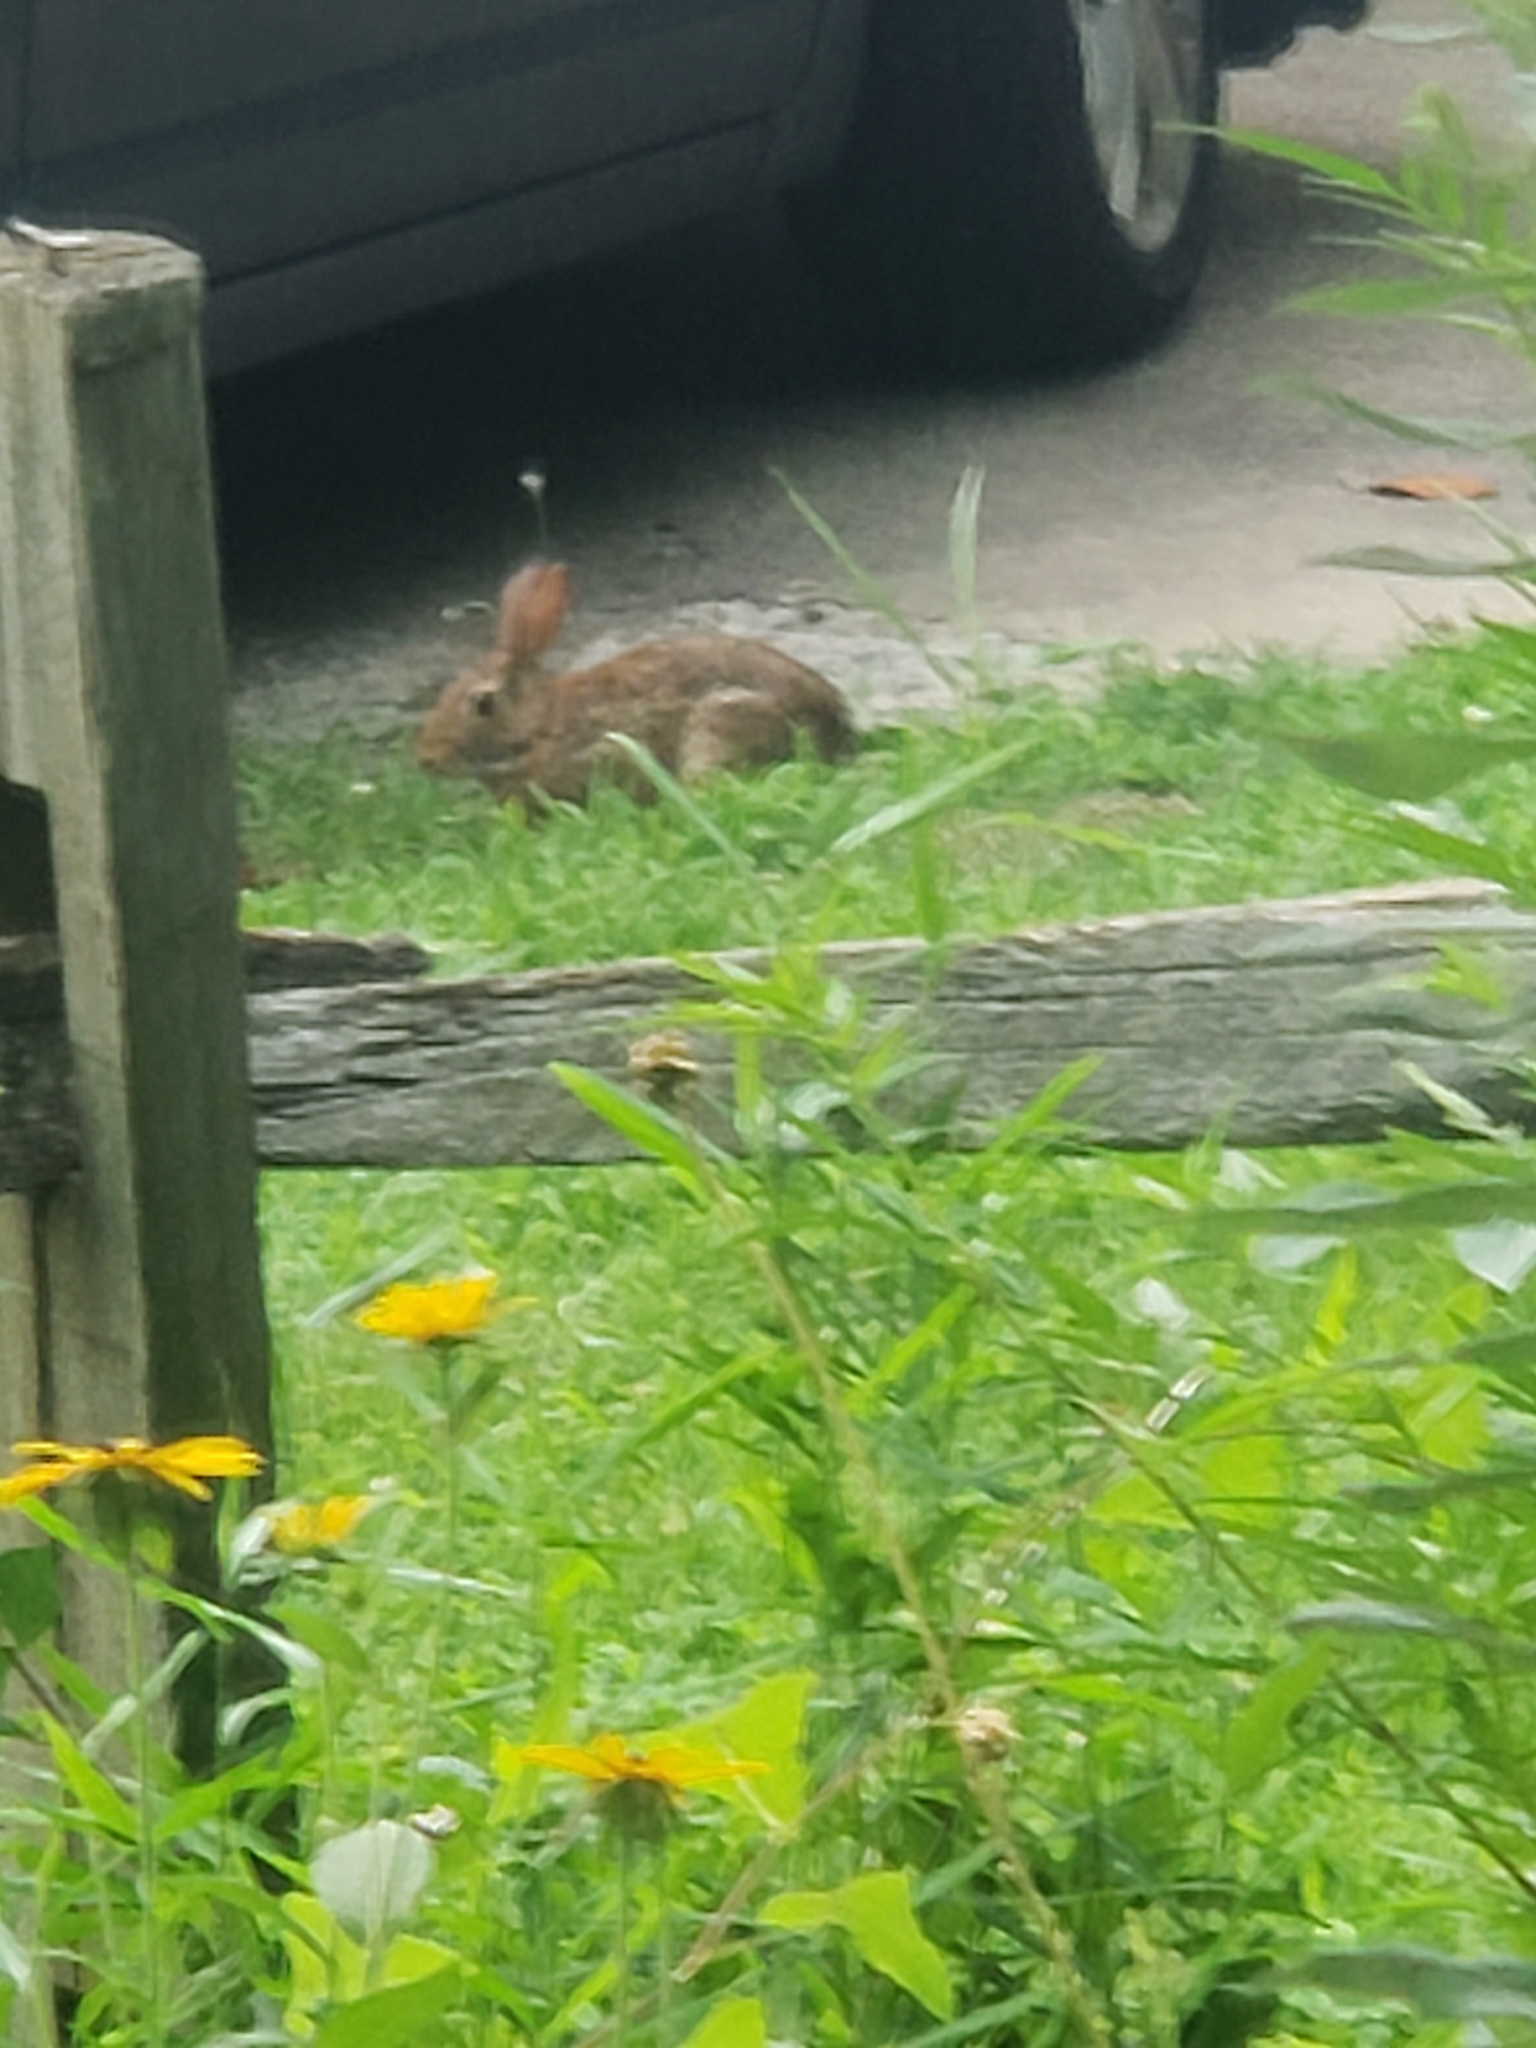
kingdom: Animalia
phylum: Chordata
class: Mammalia
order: Lagomorpha
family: Leporidae
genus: Sylvilagus
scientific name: Sylvilagus floridanus
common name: Eastern cottontail
